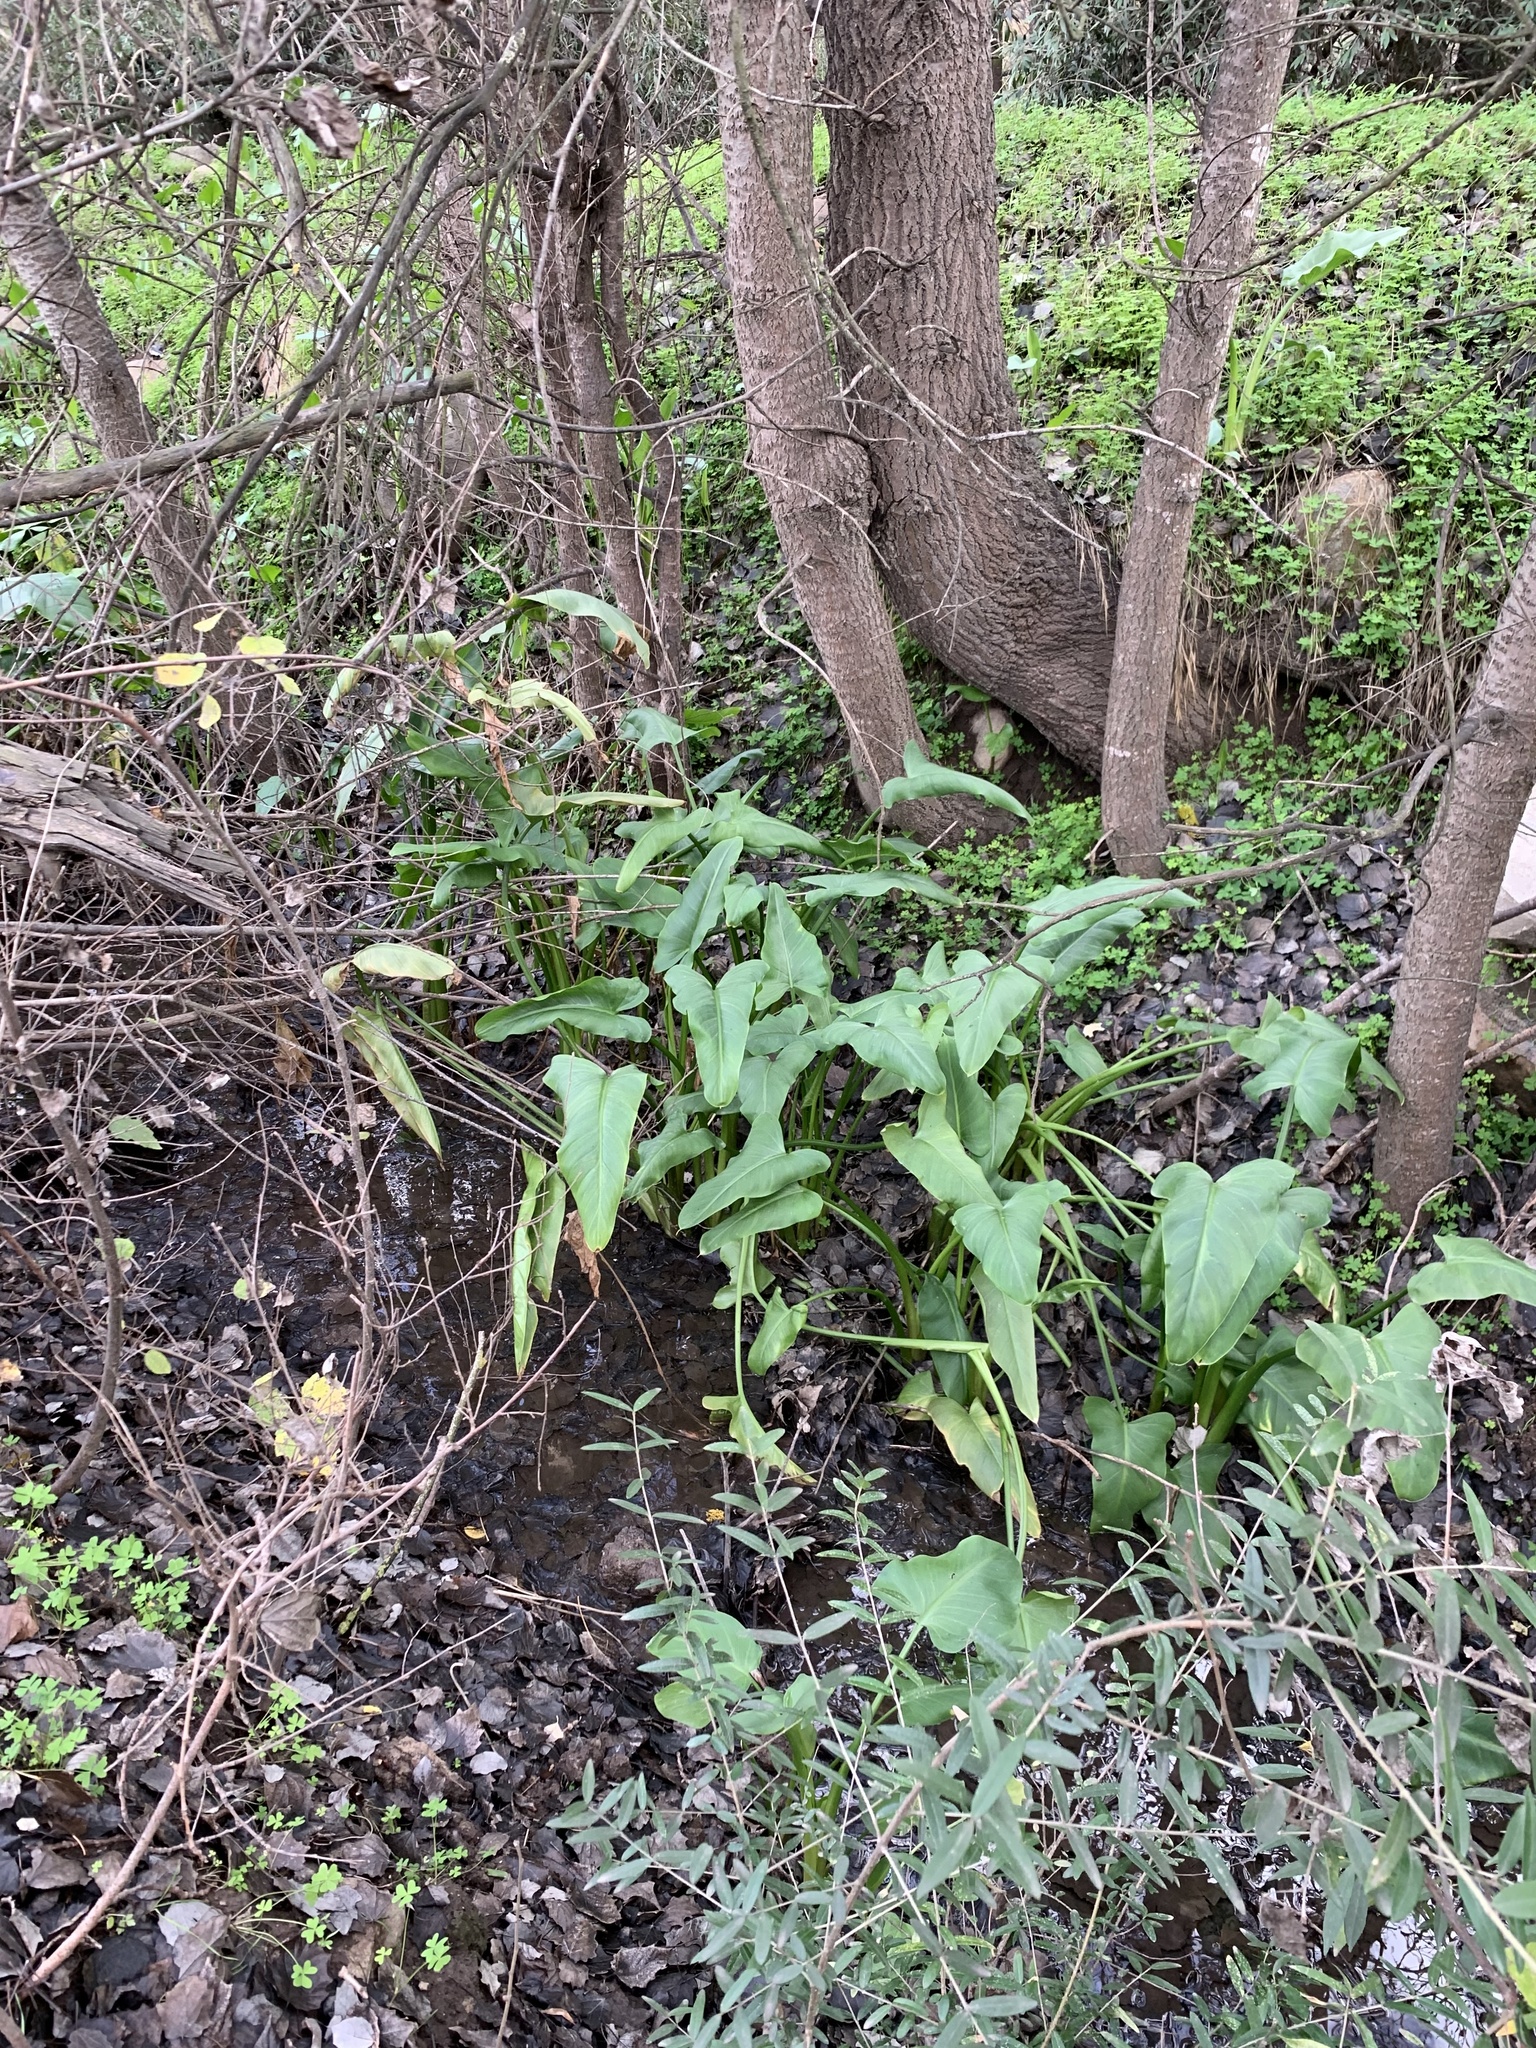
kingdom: Plantae
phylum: Tracheophyta
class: Liliopsida
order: Alismatales
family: Araceae
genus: Zantedeschia
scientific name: Zantedeschia aethiopica
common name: Altar-lily
